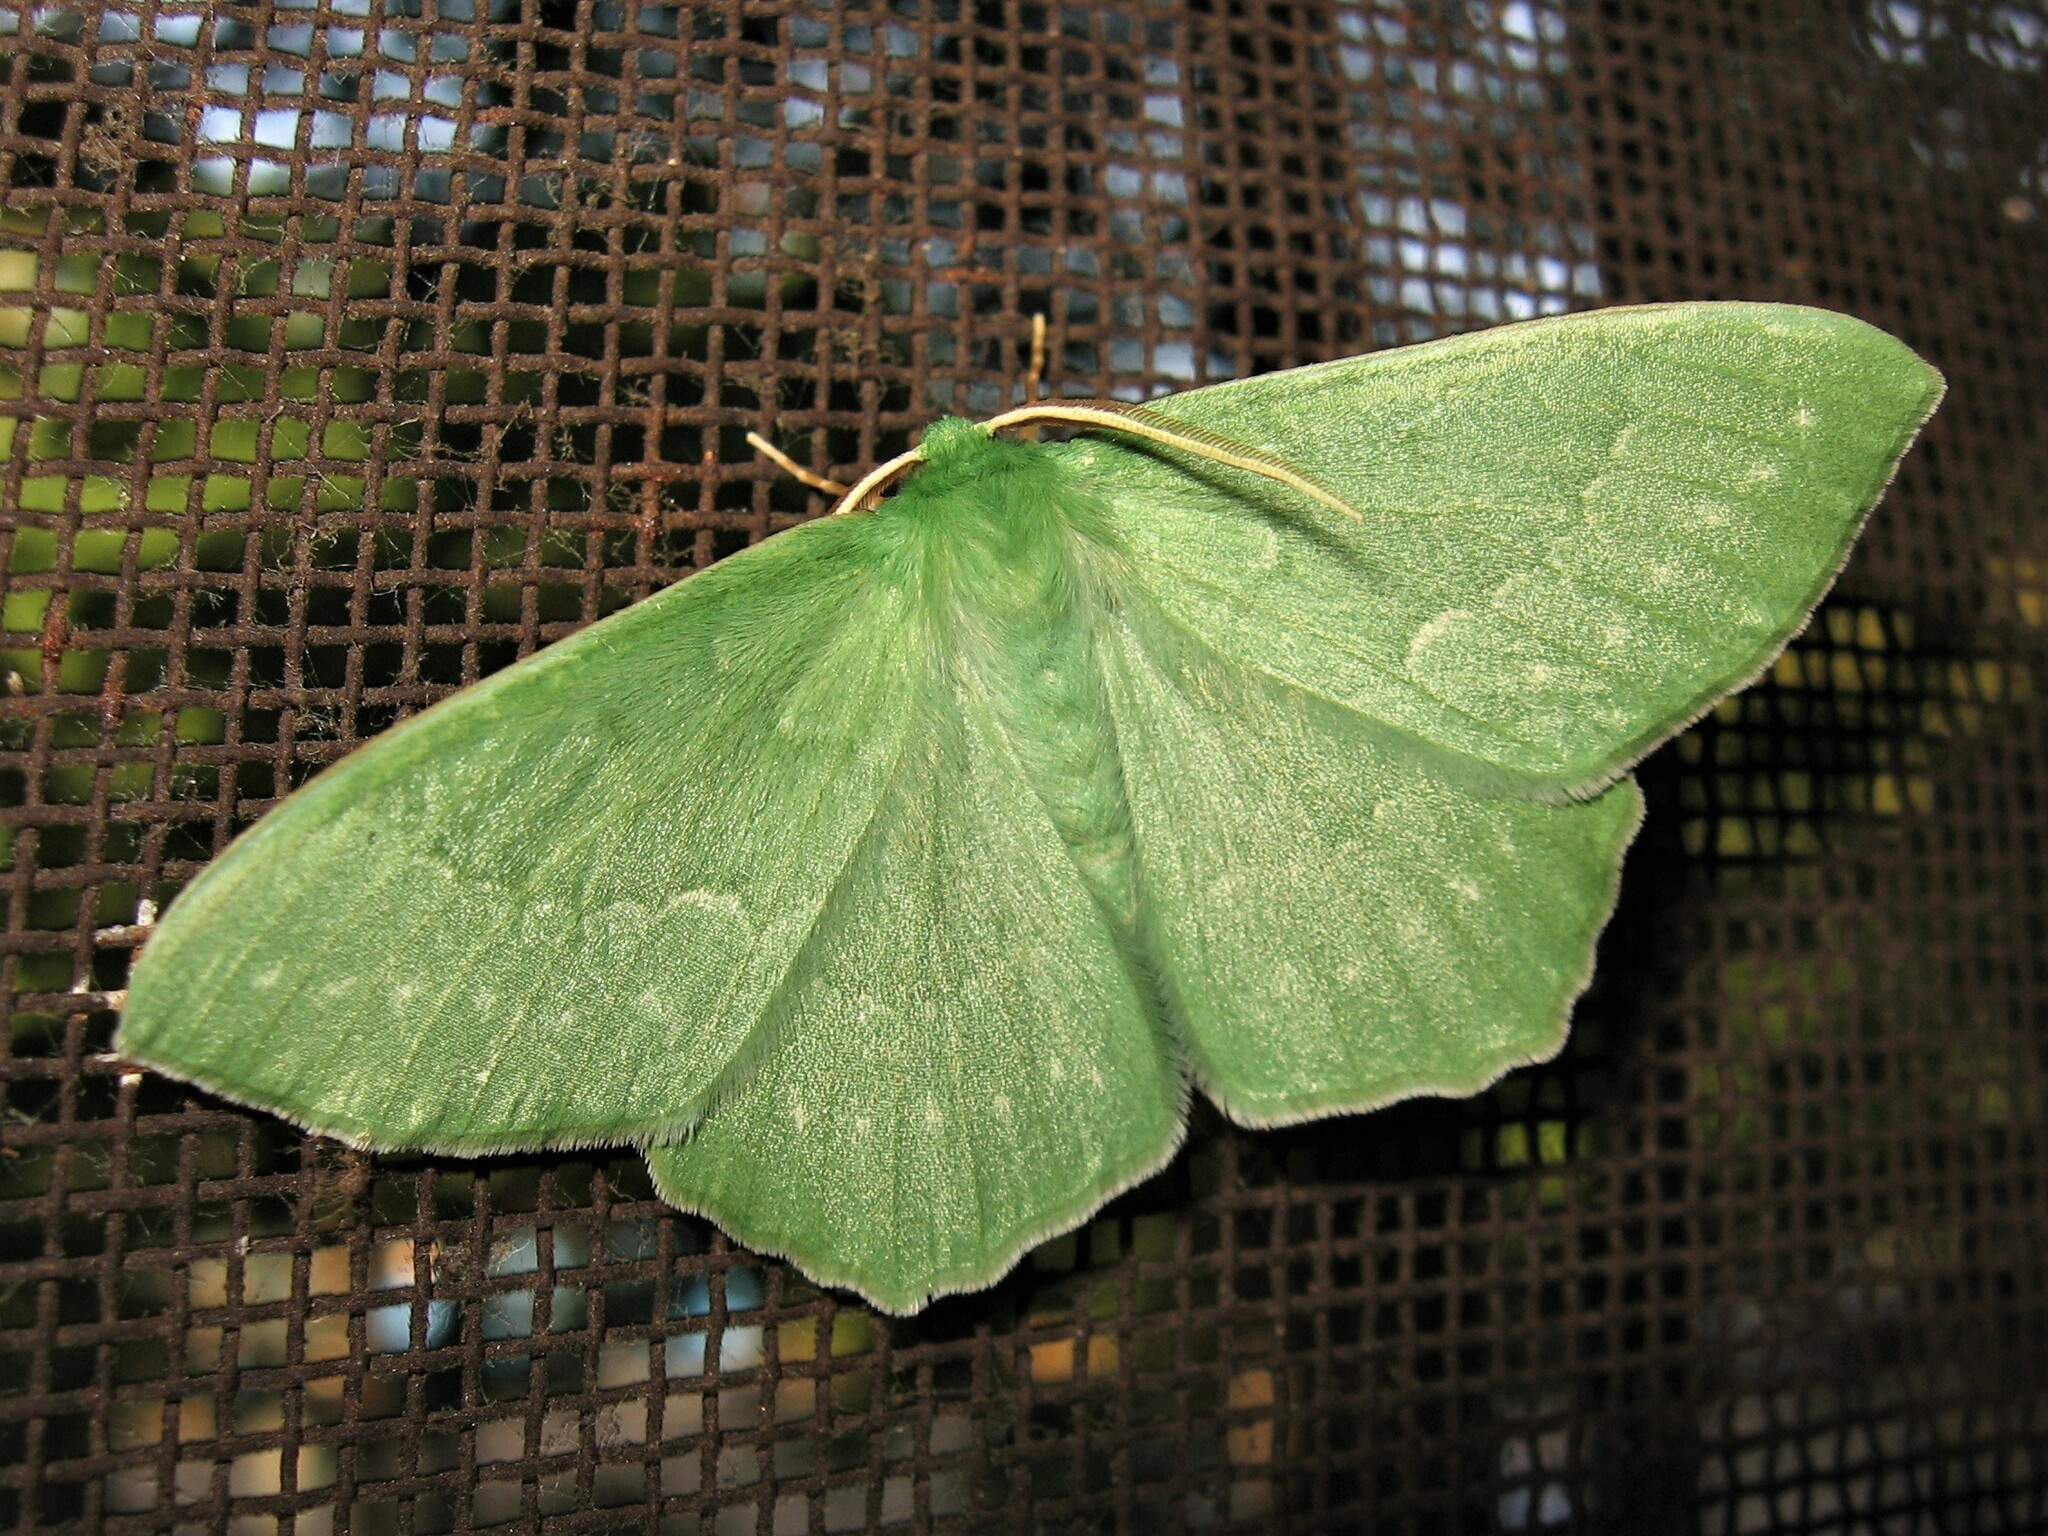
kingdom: Animalia
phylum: Arthropoda
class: Insecta
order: Lepidoptera
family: Geometridae
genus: Geometra
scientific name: Geometra papilionaria
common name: Large emerald
